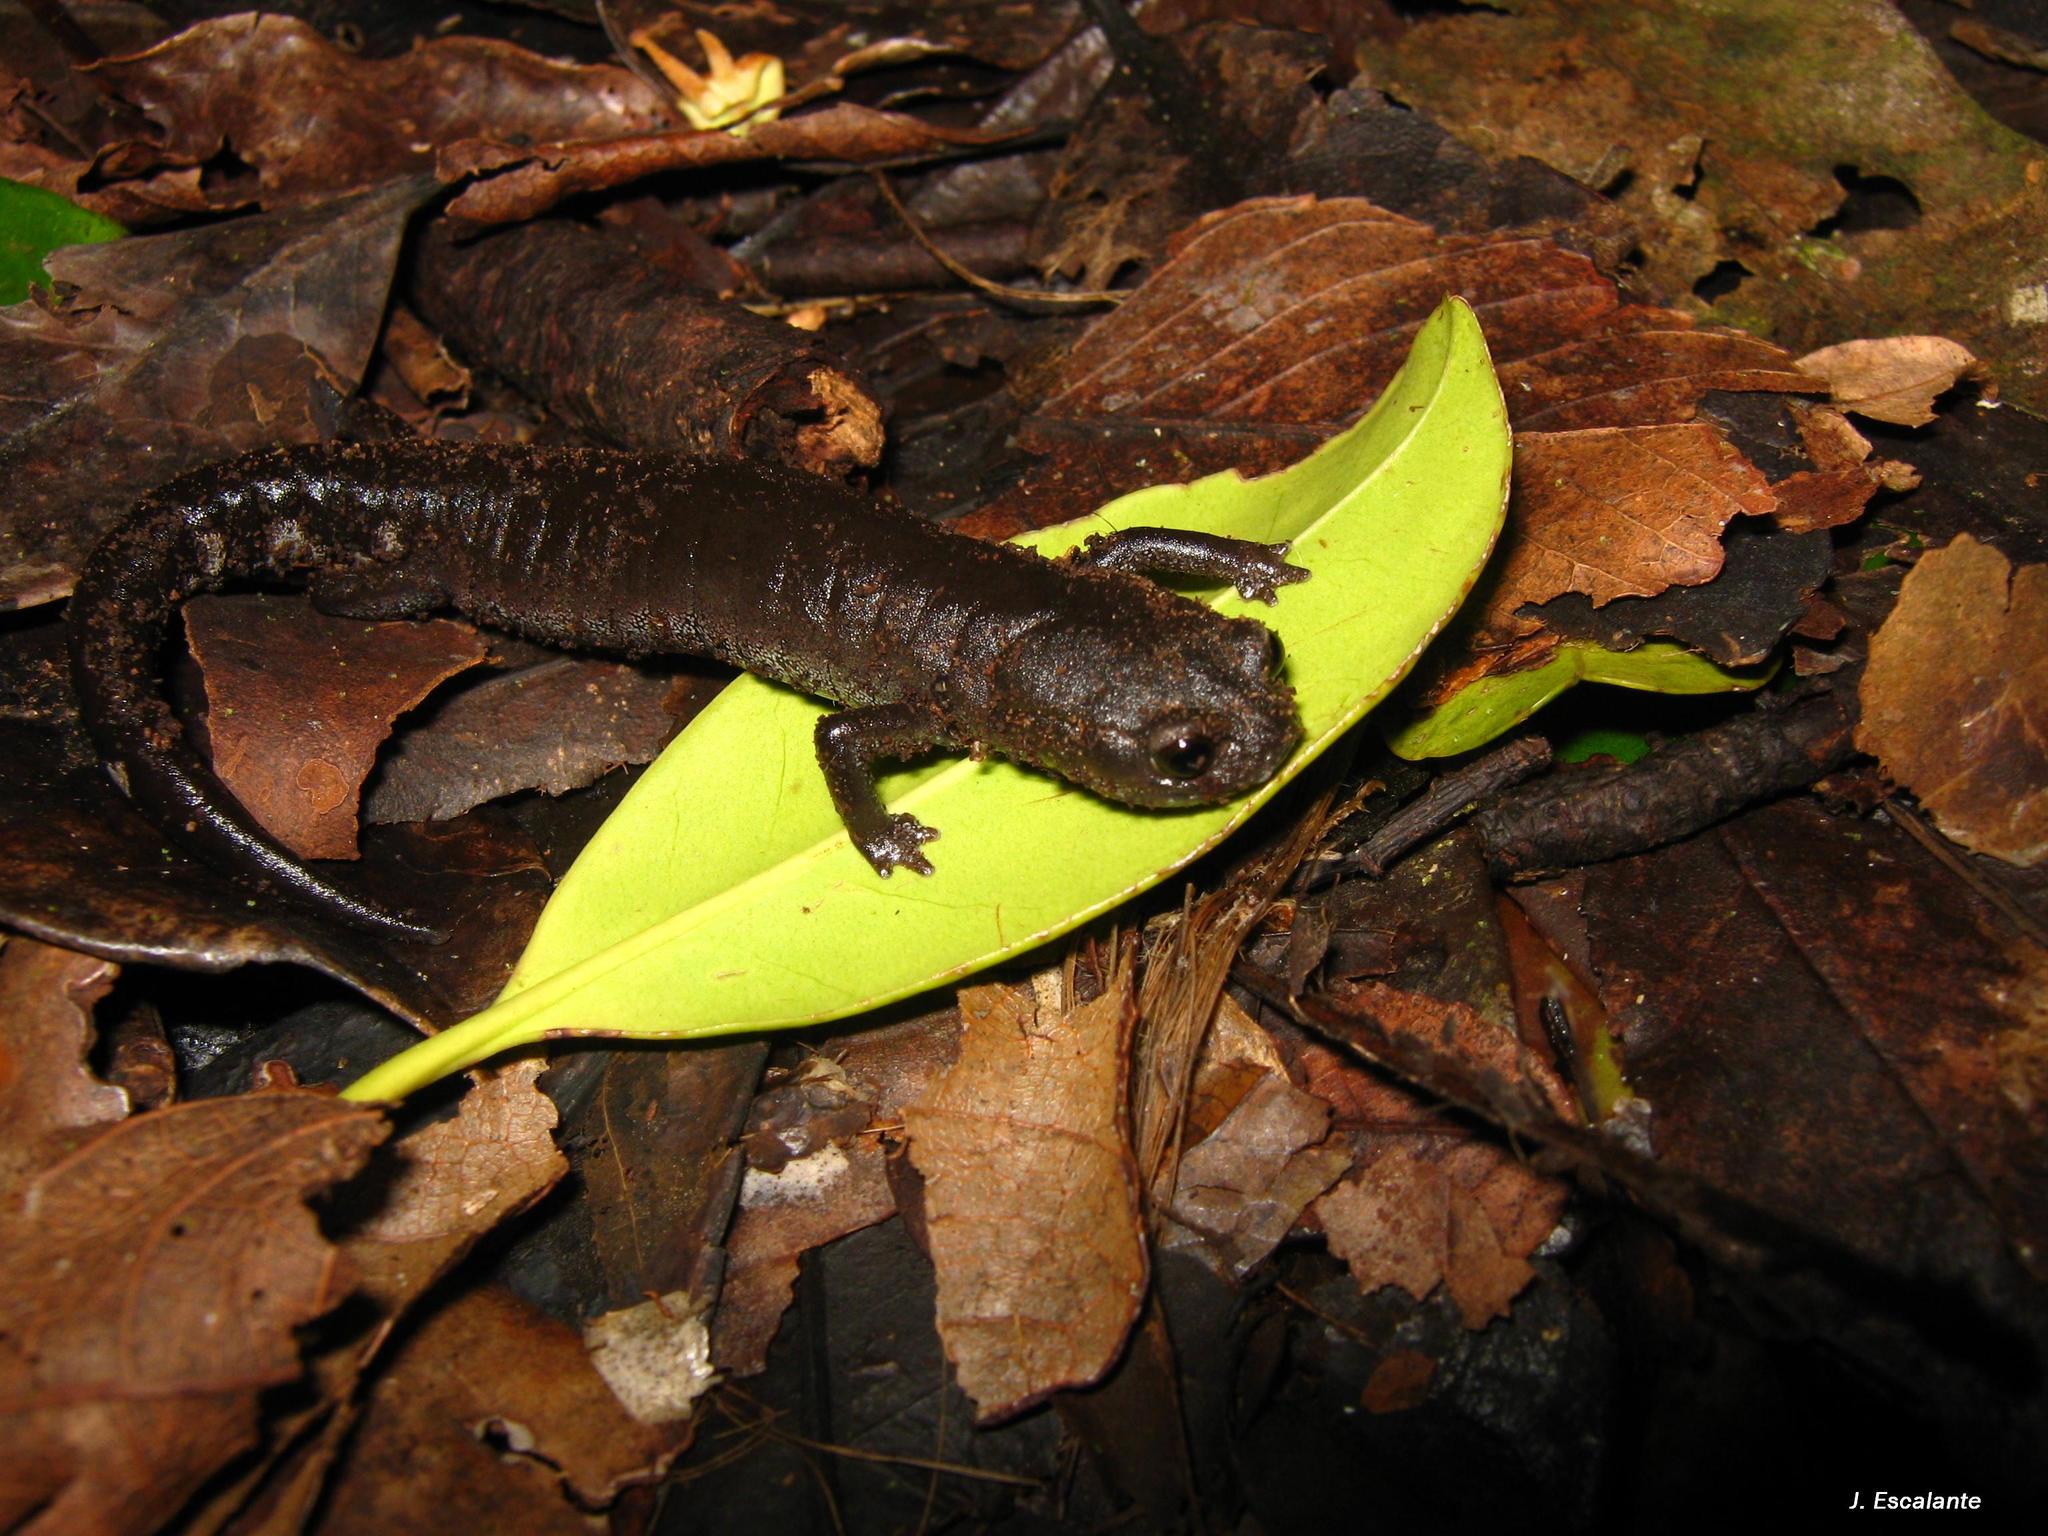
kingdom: Animalia
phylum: Chordata
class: Amphibia
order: Caudata
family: Plethodontidae
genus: Pseudoeurycea
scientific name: Pseudoeurycea werleri
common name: Werler's salamander
